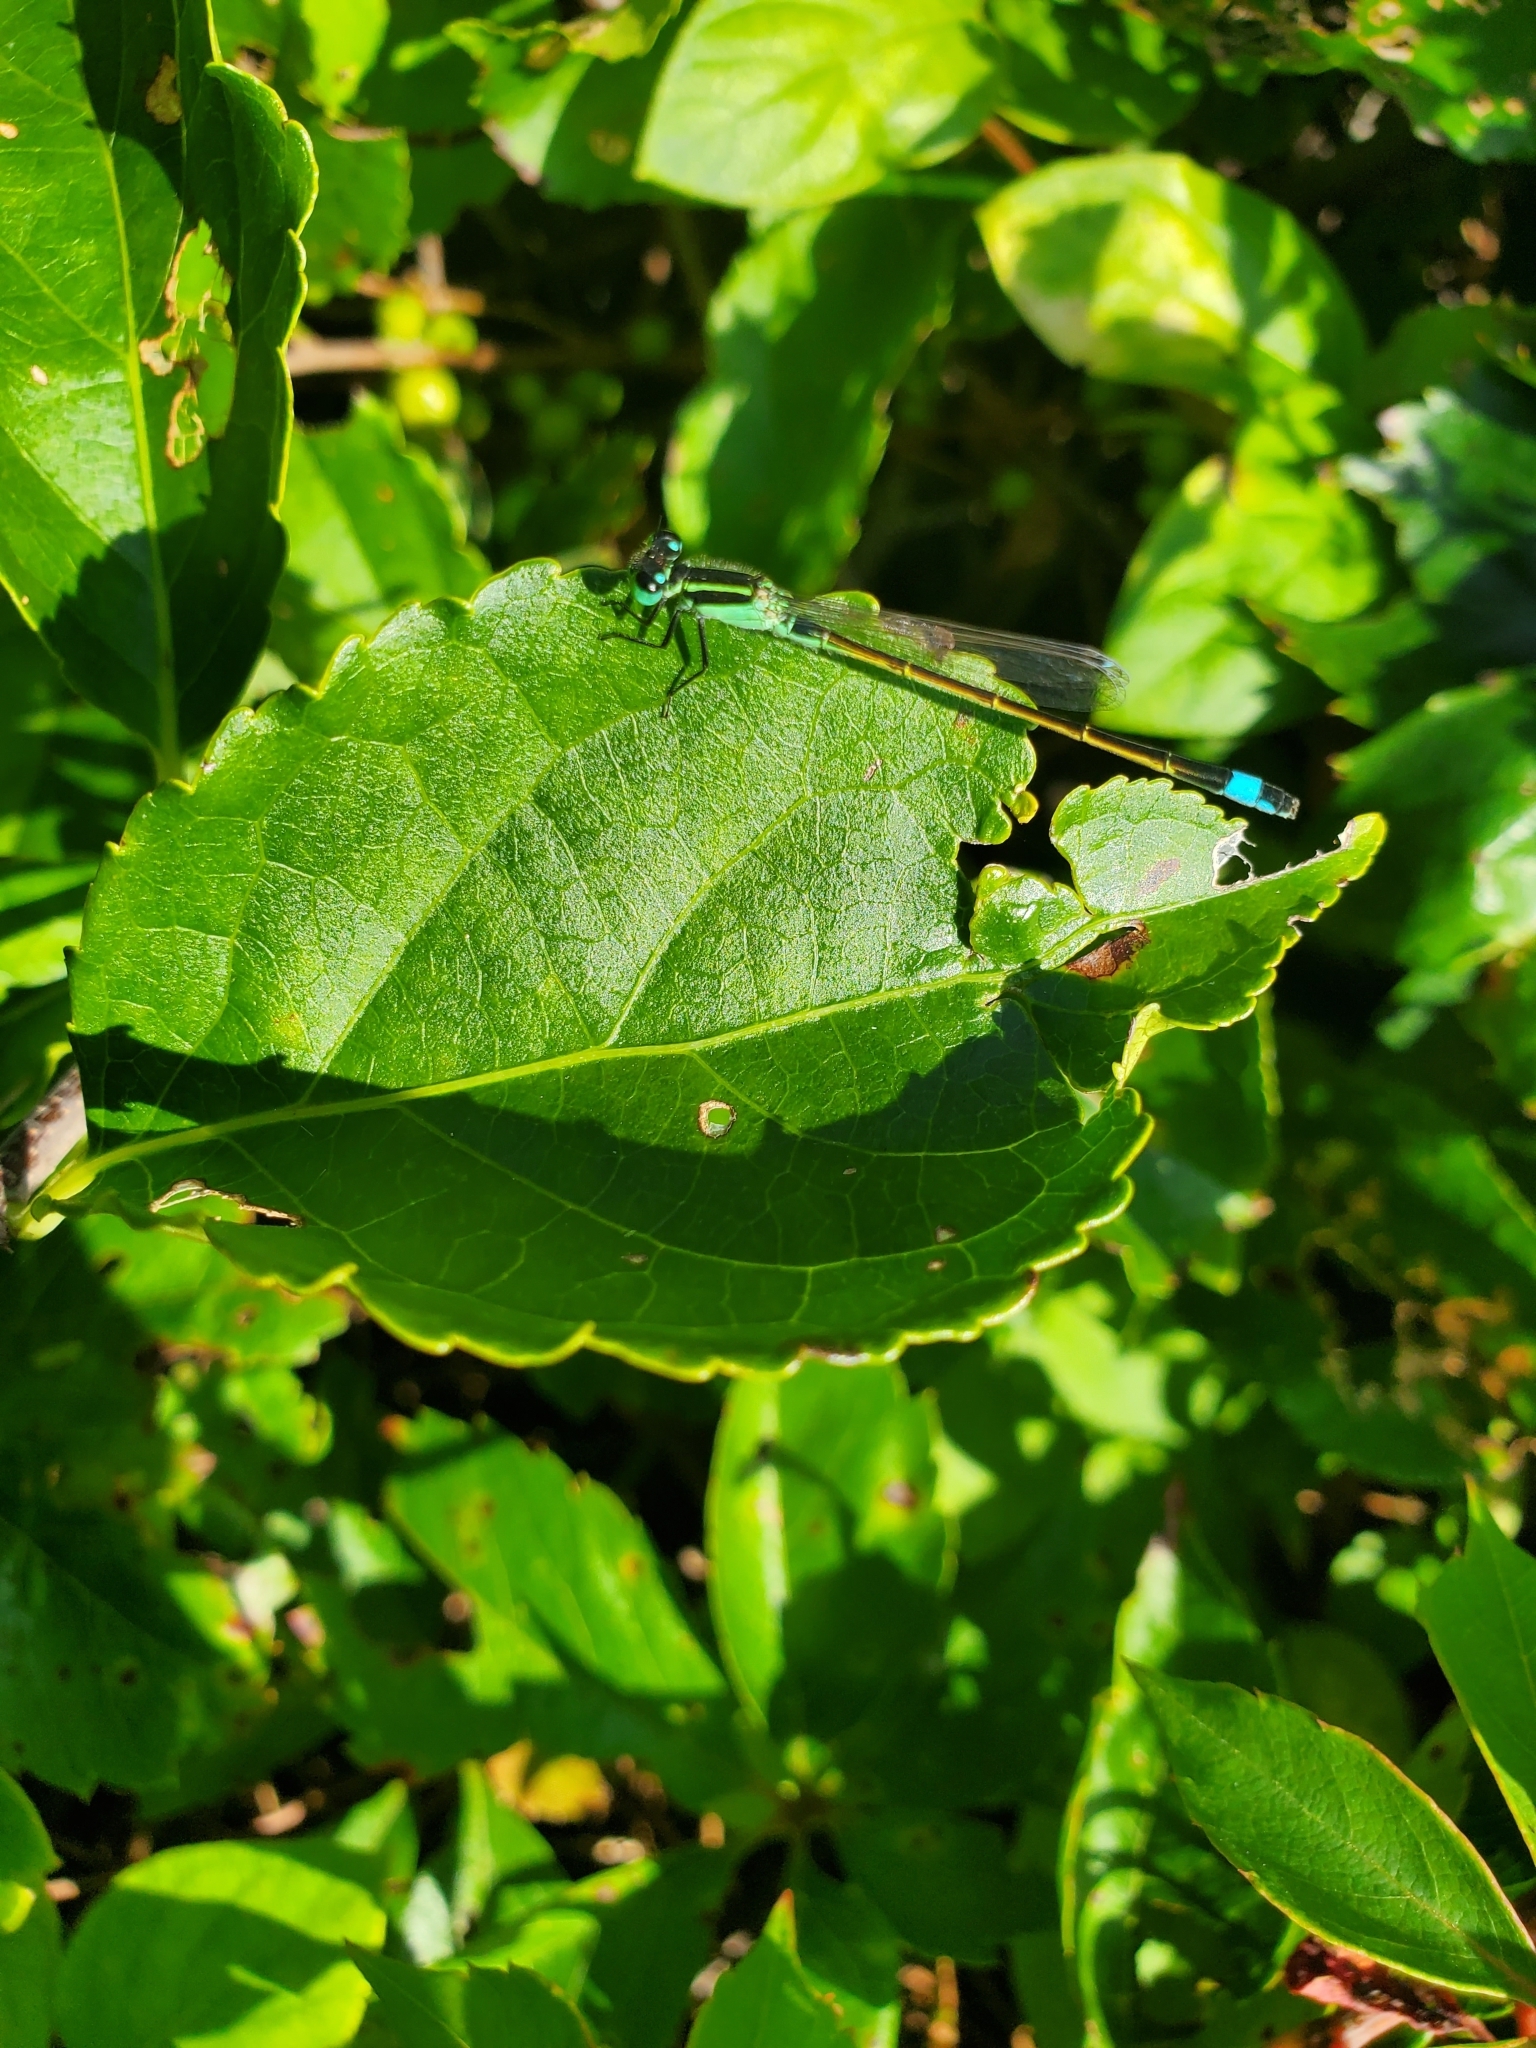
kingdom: Animalia
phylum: Arthropoda
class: Insecta
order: Odonata
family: Coenagrionidae
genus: Ischnura
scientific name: Ischnura ramburii
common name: Rambur's forktail
